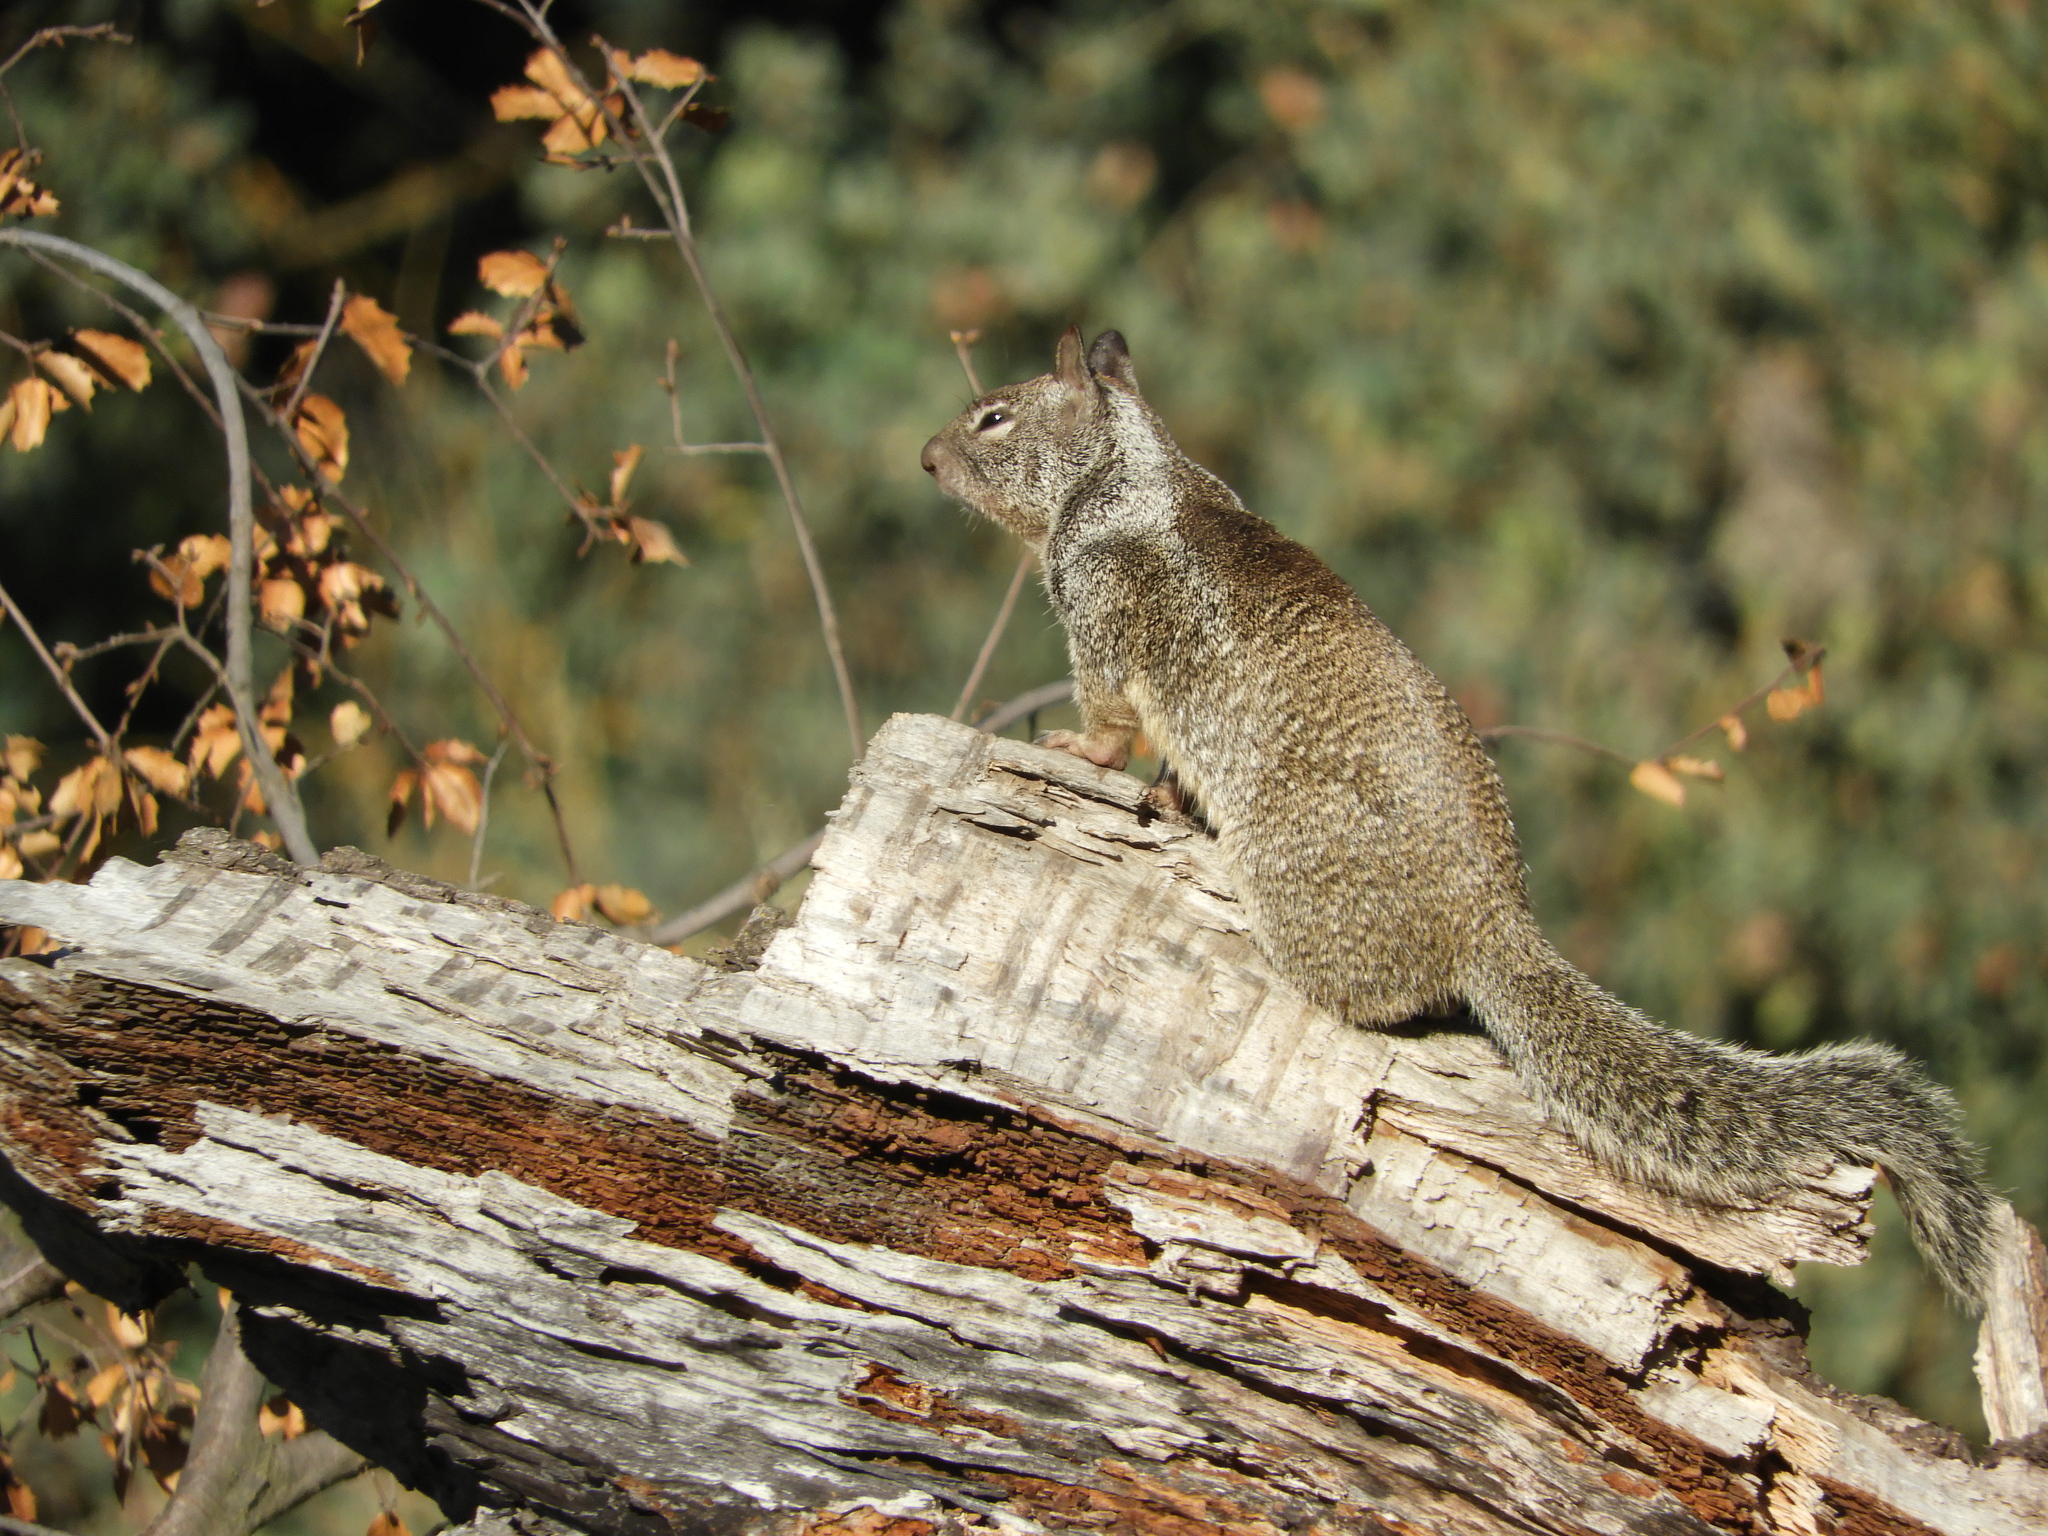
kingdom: Animalia
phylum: Chordata
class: Mammalia
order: Rodentia
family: Sciuridae
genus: Otospermophilus
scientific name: Otospermophilus beecheyi
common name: California ground squirrel
